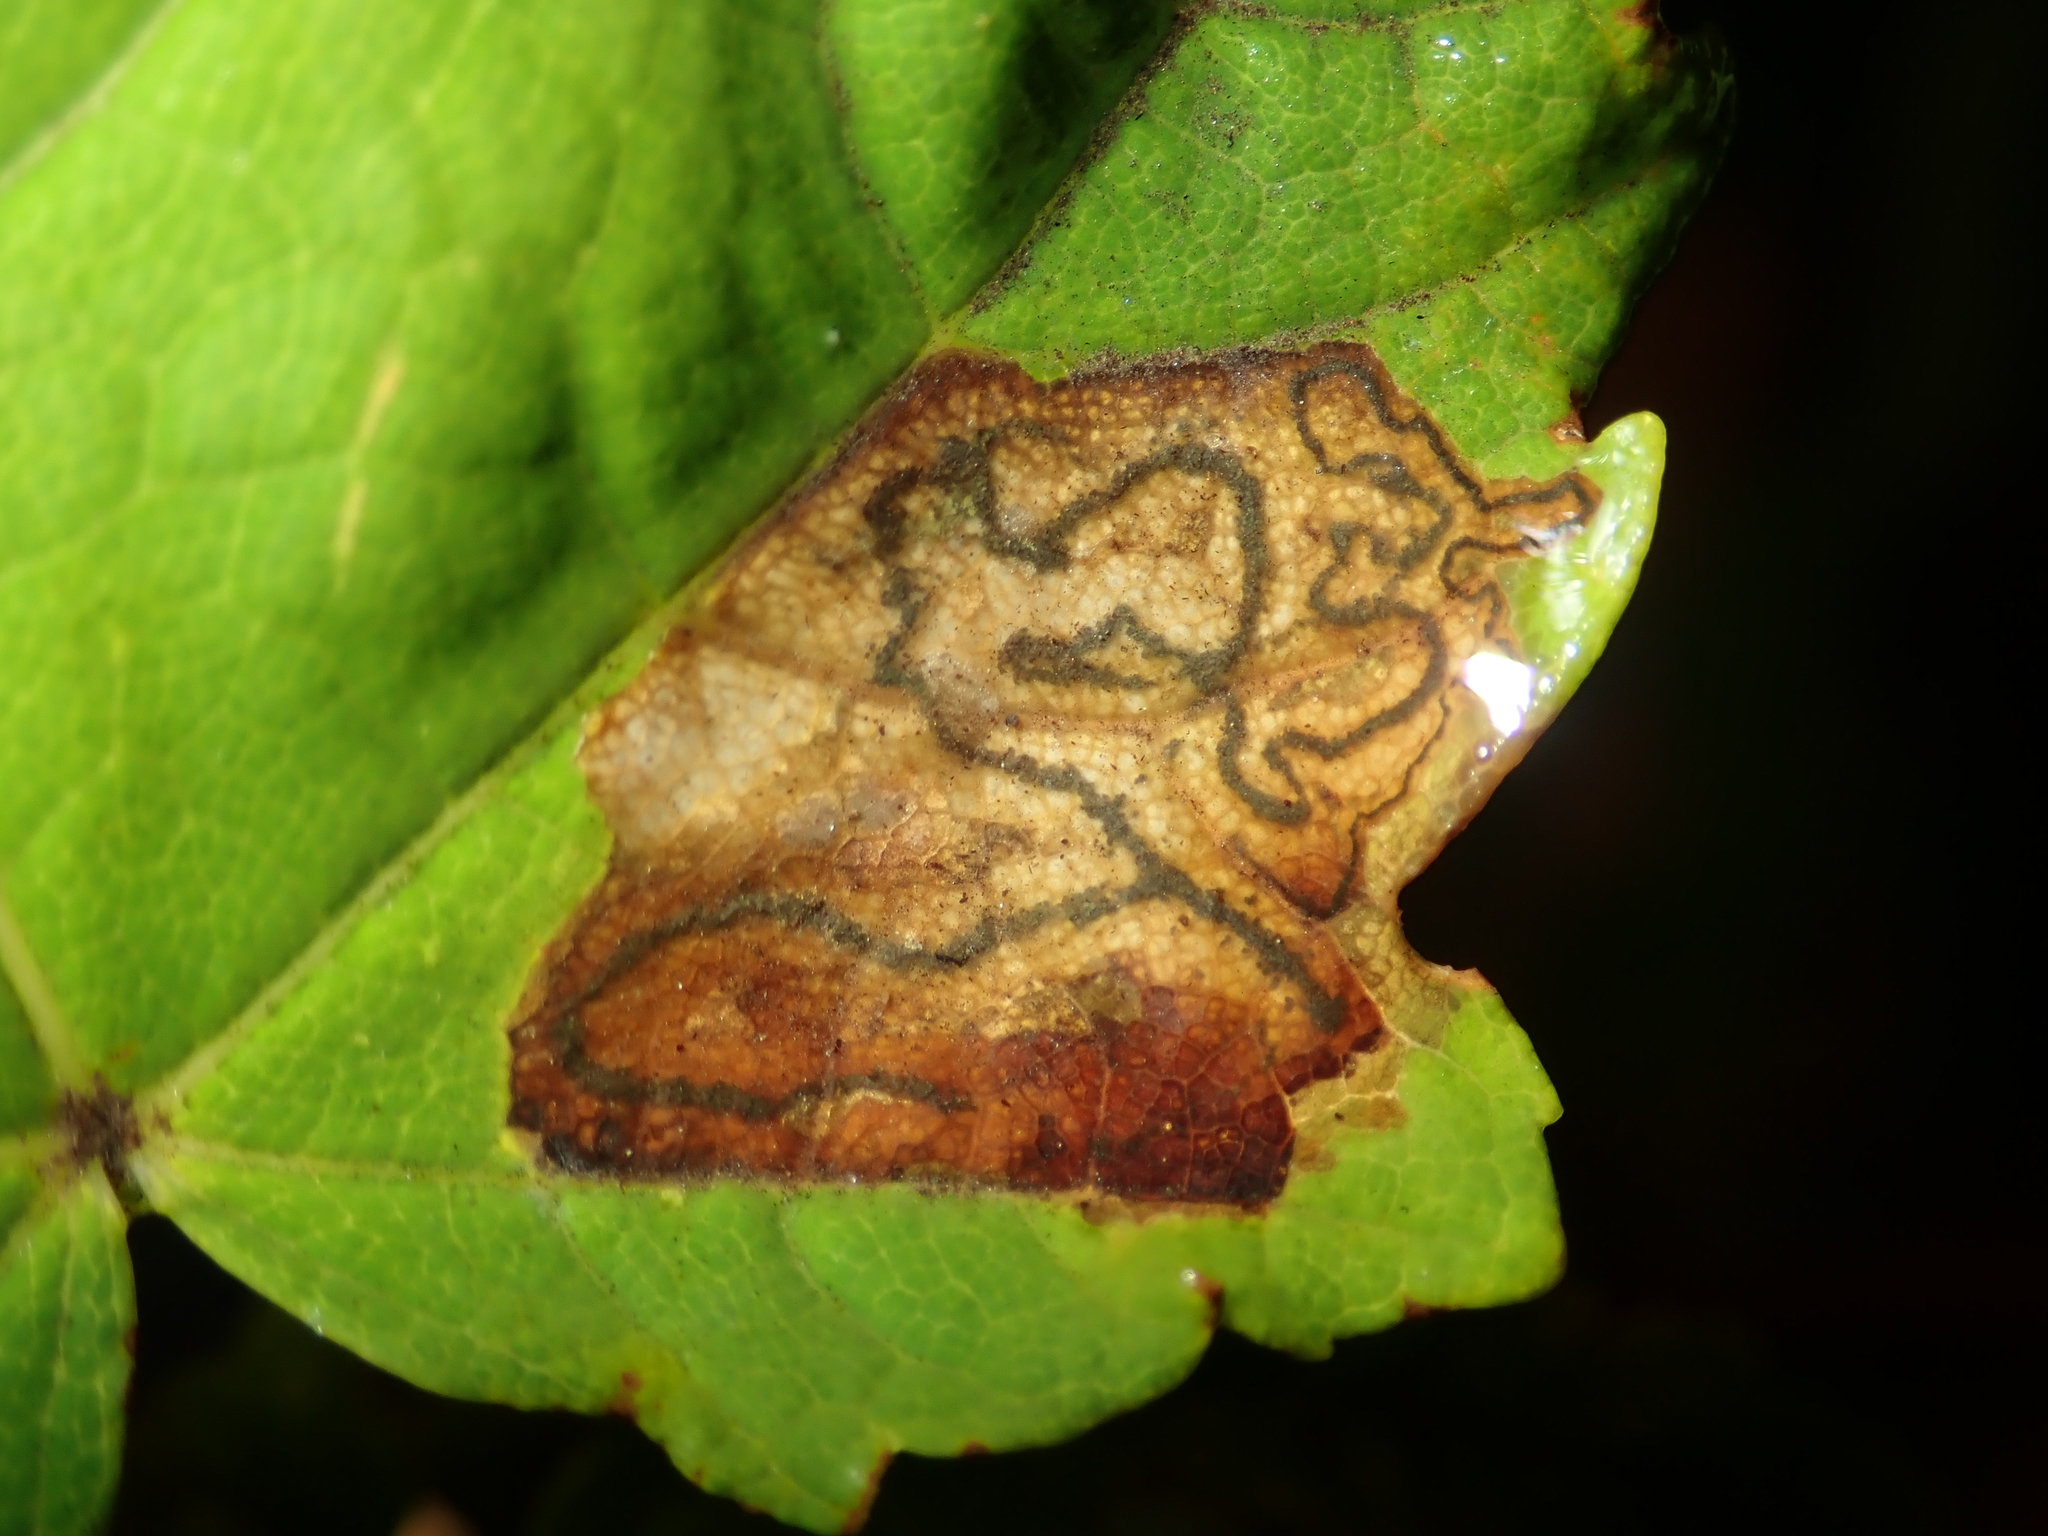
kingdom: Animalia
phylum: Arthropoda
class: Insecta
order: Lepidoptera
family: Nepticulidae
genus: Stigmella
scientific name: Stigmella speciosa
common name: Barred sycamore pigmy
